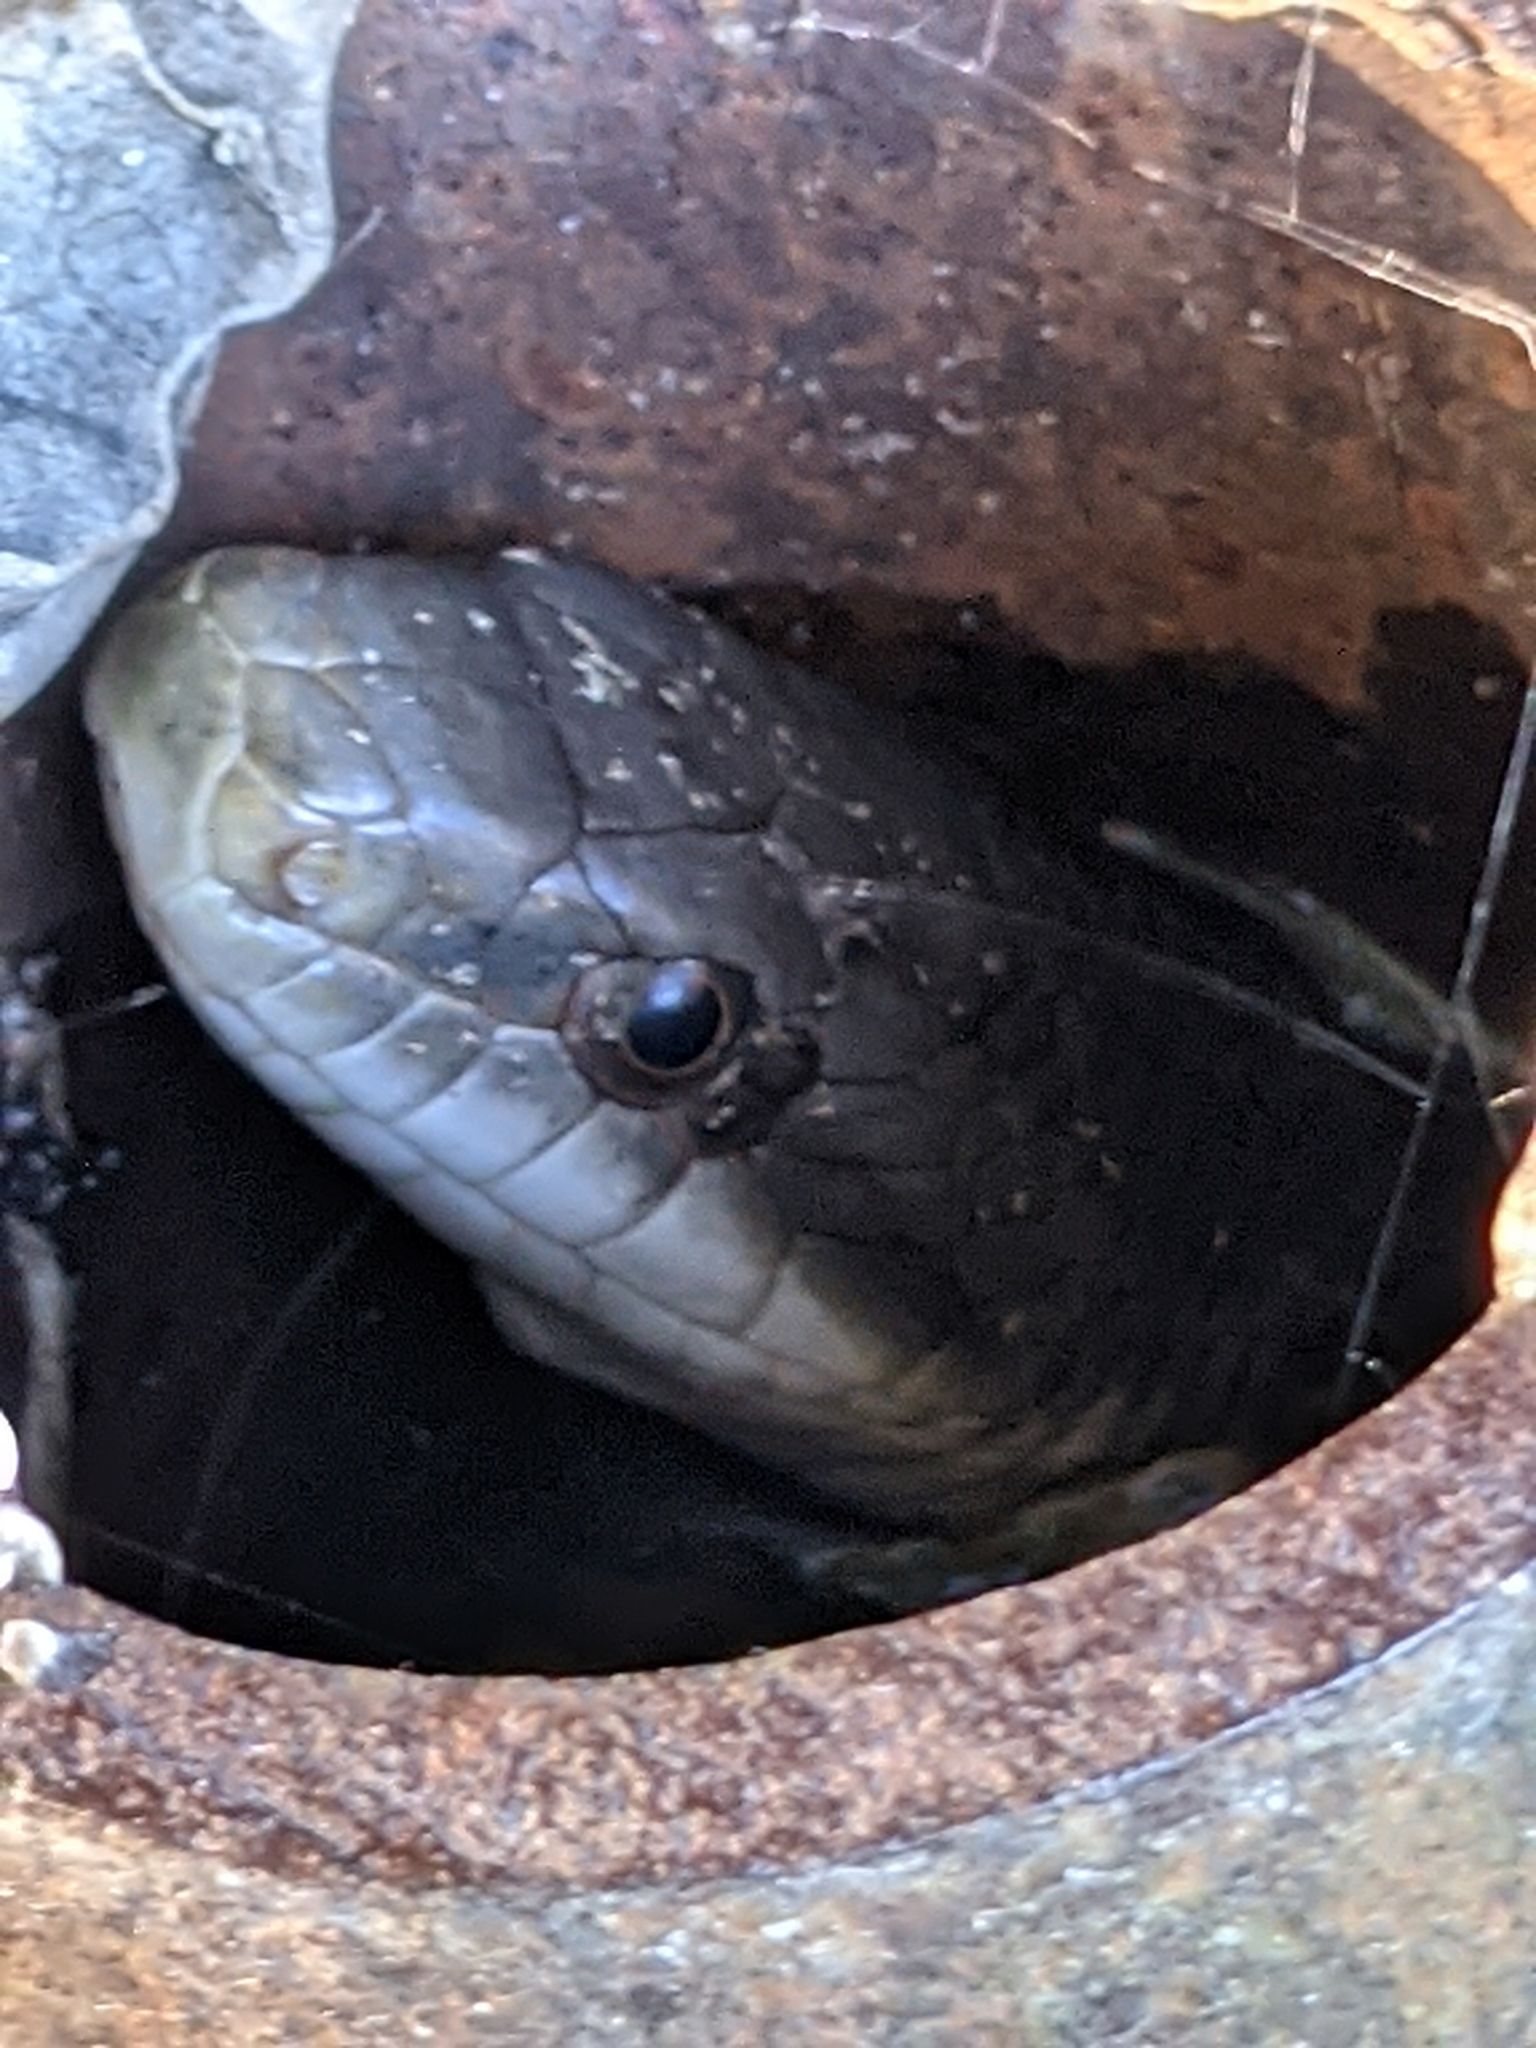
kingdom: Animalia
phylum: Chordata
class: Squamata
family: Colubridae
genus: Pantherophis
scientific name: Pantherophis obsoletus
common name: Black rat snake
